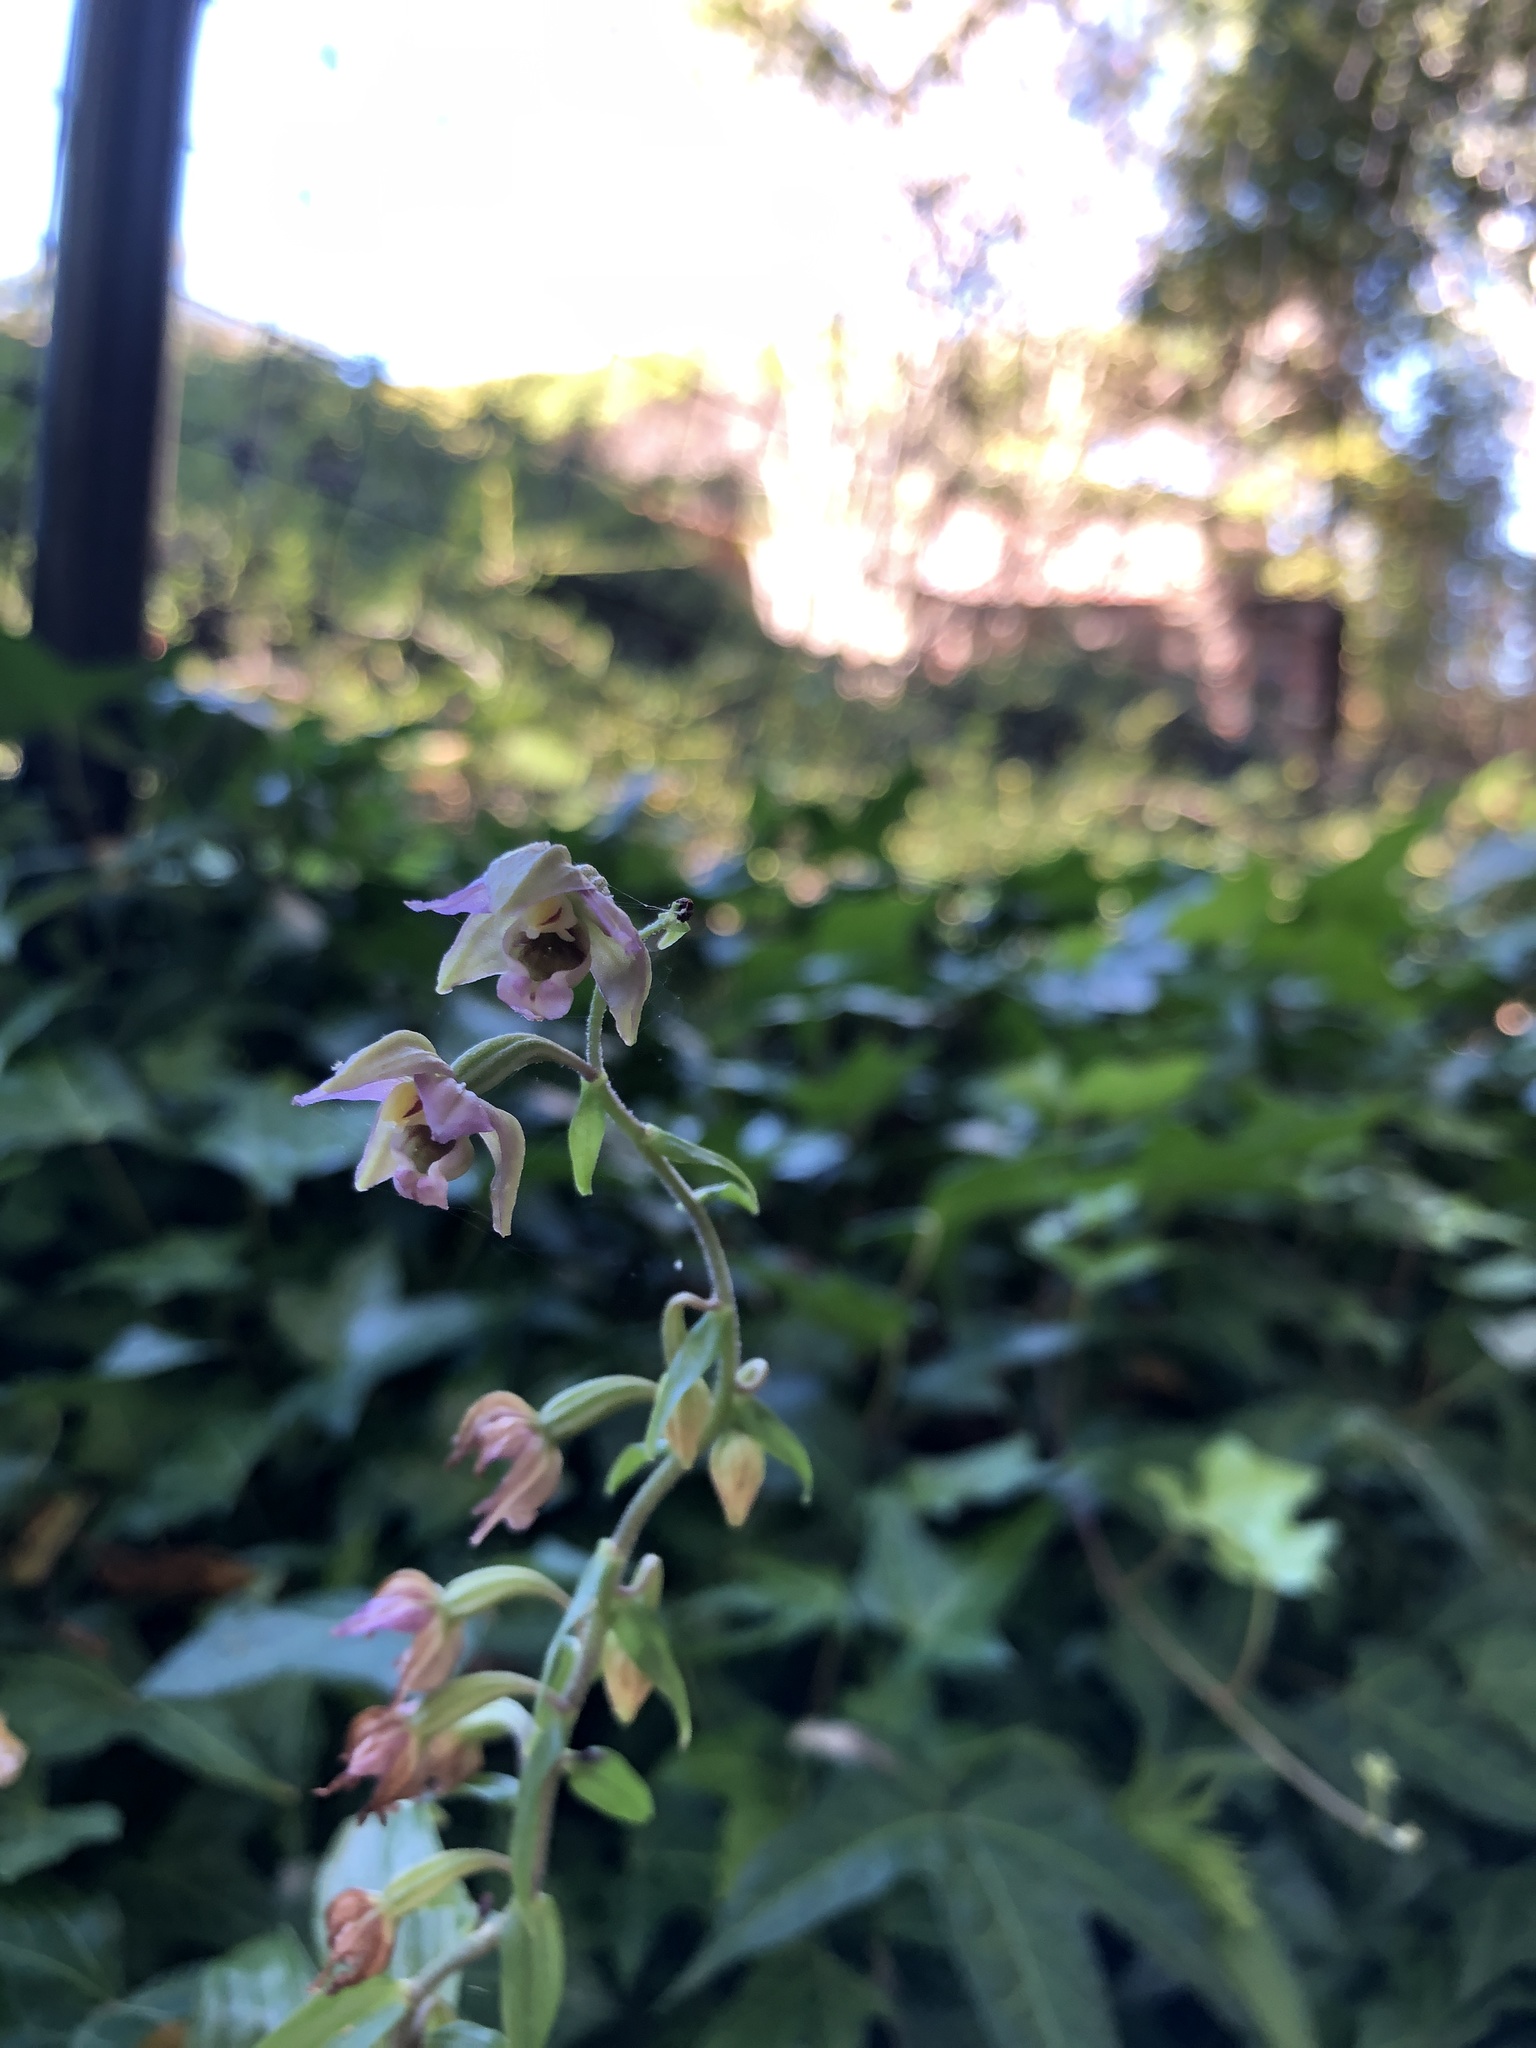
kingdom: Plantae
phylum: Tracheophyta
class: Liliopsida
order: Asparagales
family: Orchidaceae
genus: Epipactis
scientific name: Epipactis helleborine
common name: Broad-leaved helleborine
